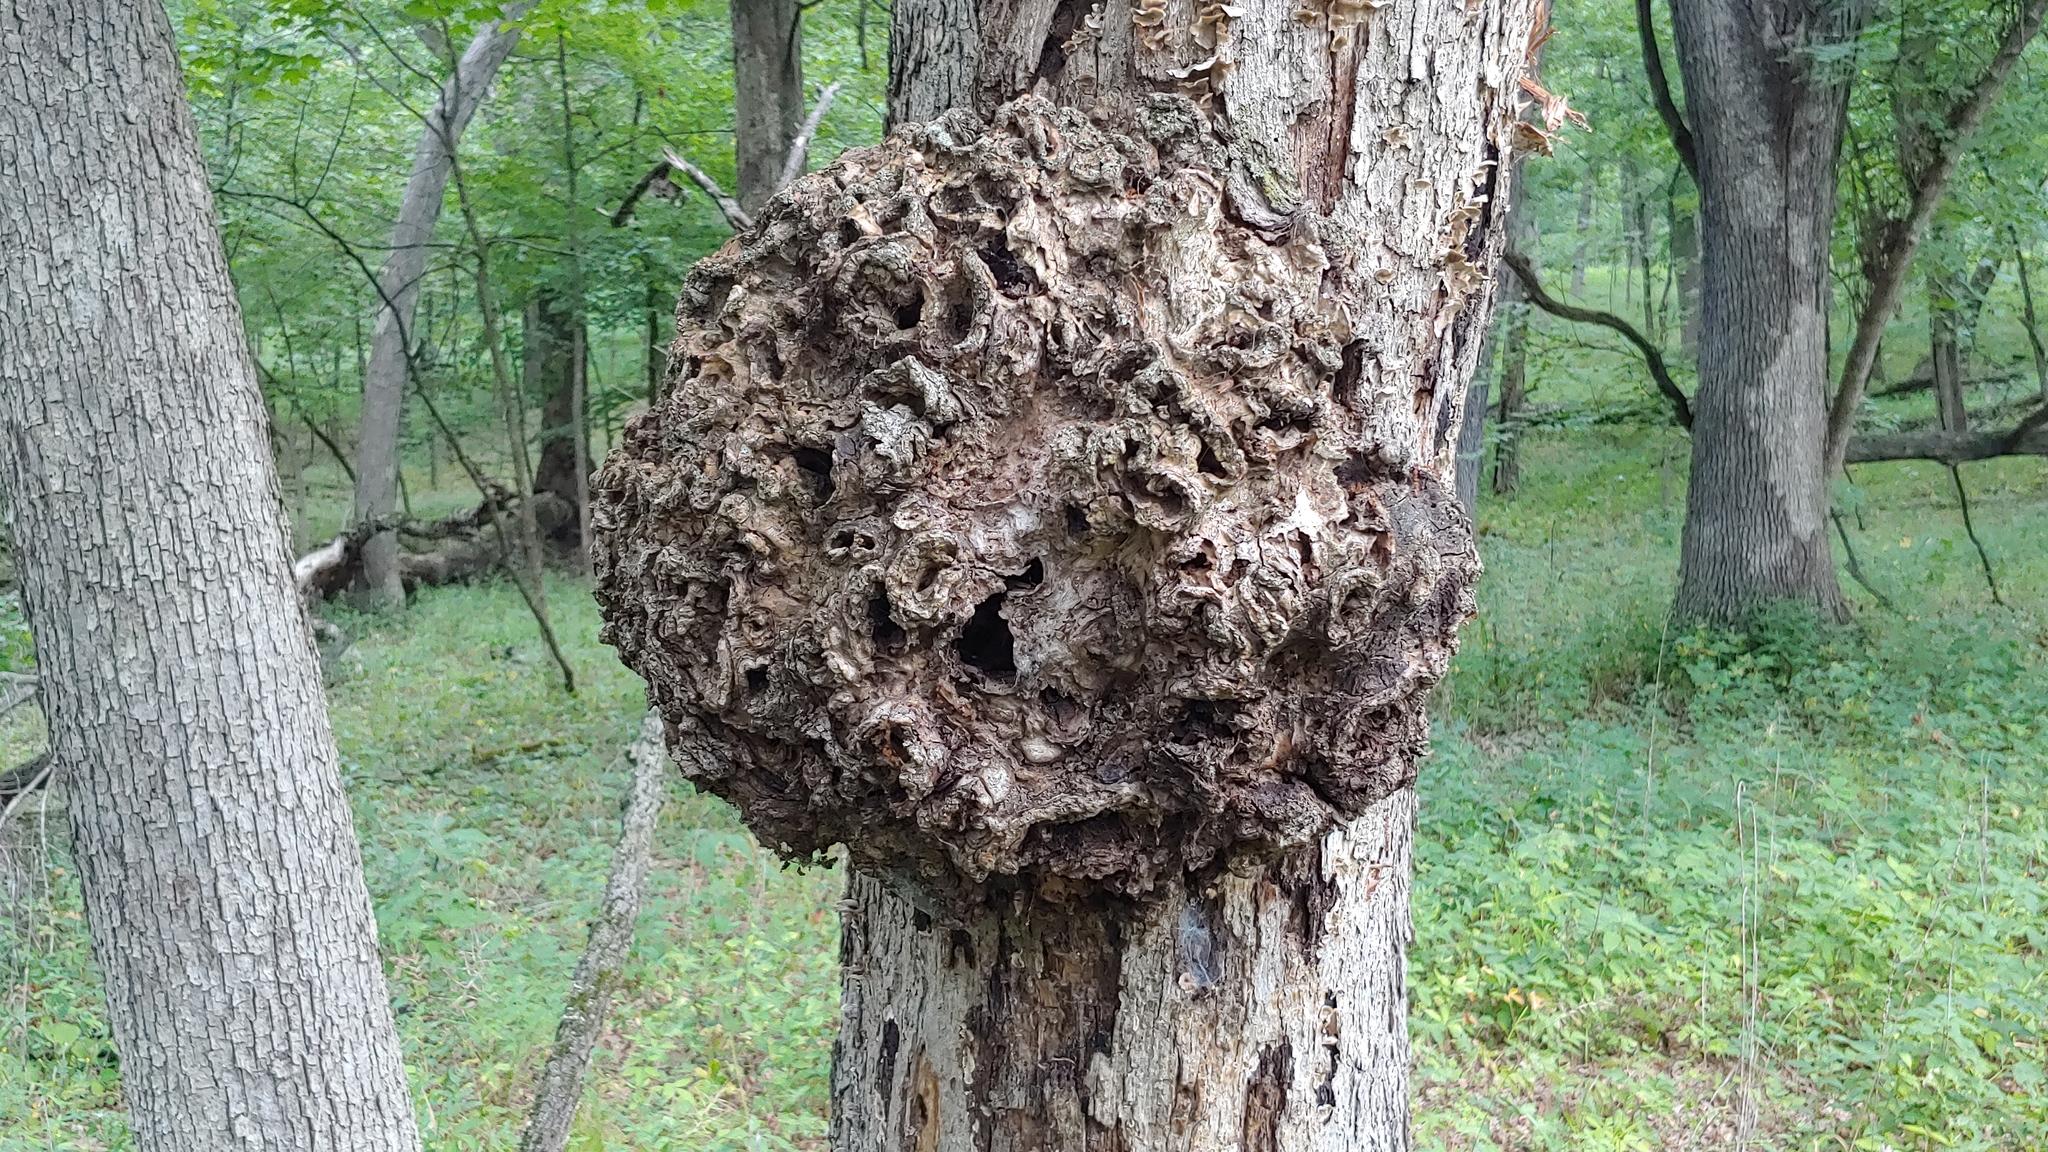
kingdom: Bacteria
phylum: Proteobacteria
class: Alphaproteobacteria
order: Rhizobiales
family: Rhizobiaceae
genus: Rhizobium
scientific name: Rhizobium Agrobacterium radiobacter
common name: Bacterial crown gall
